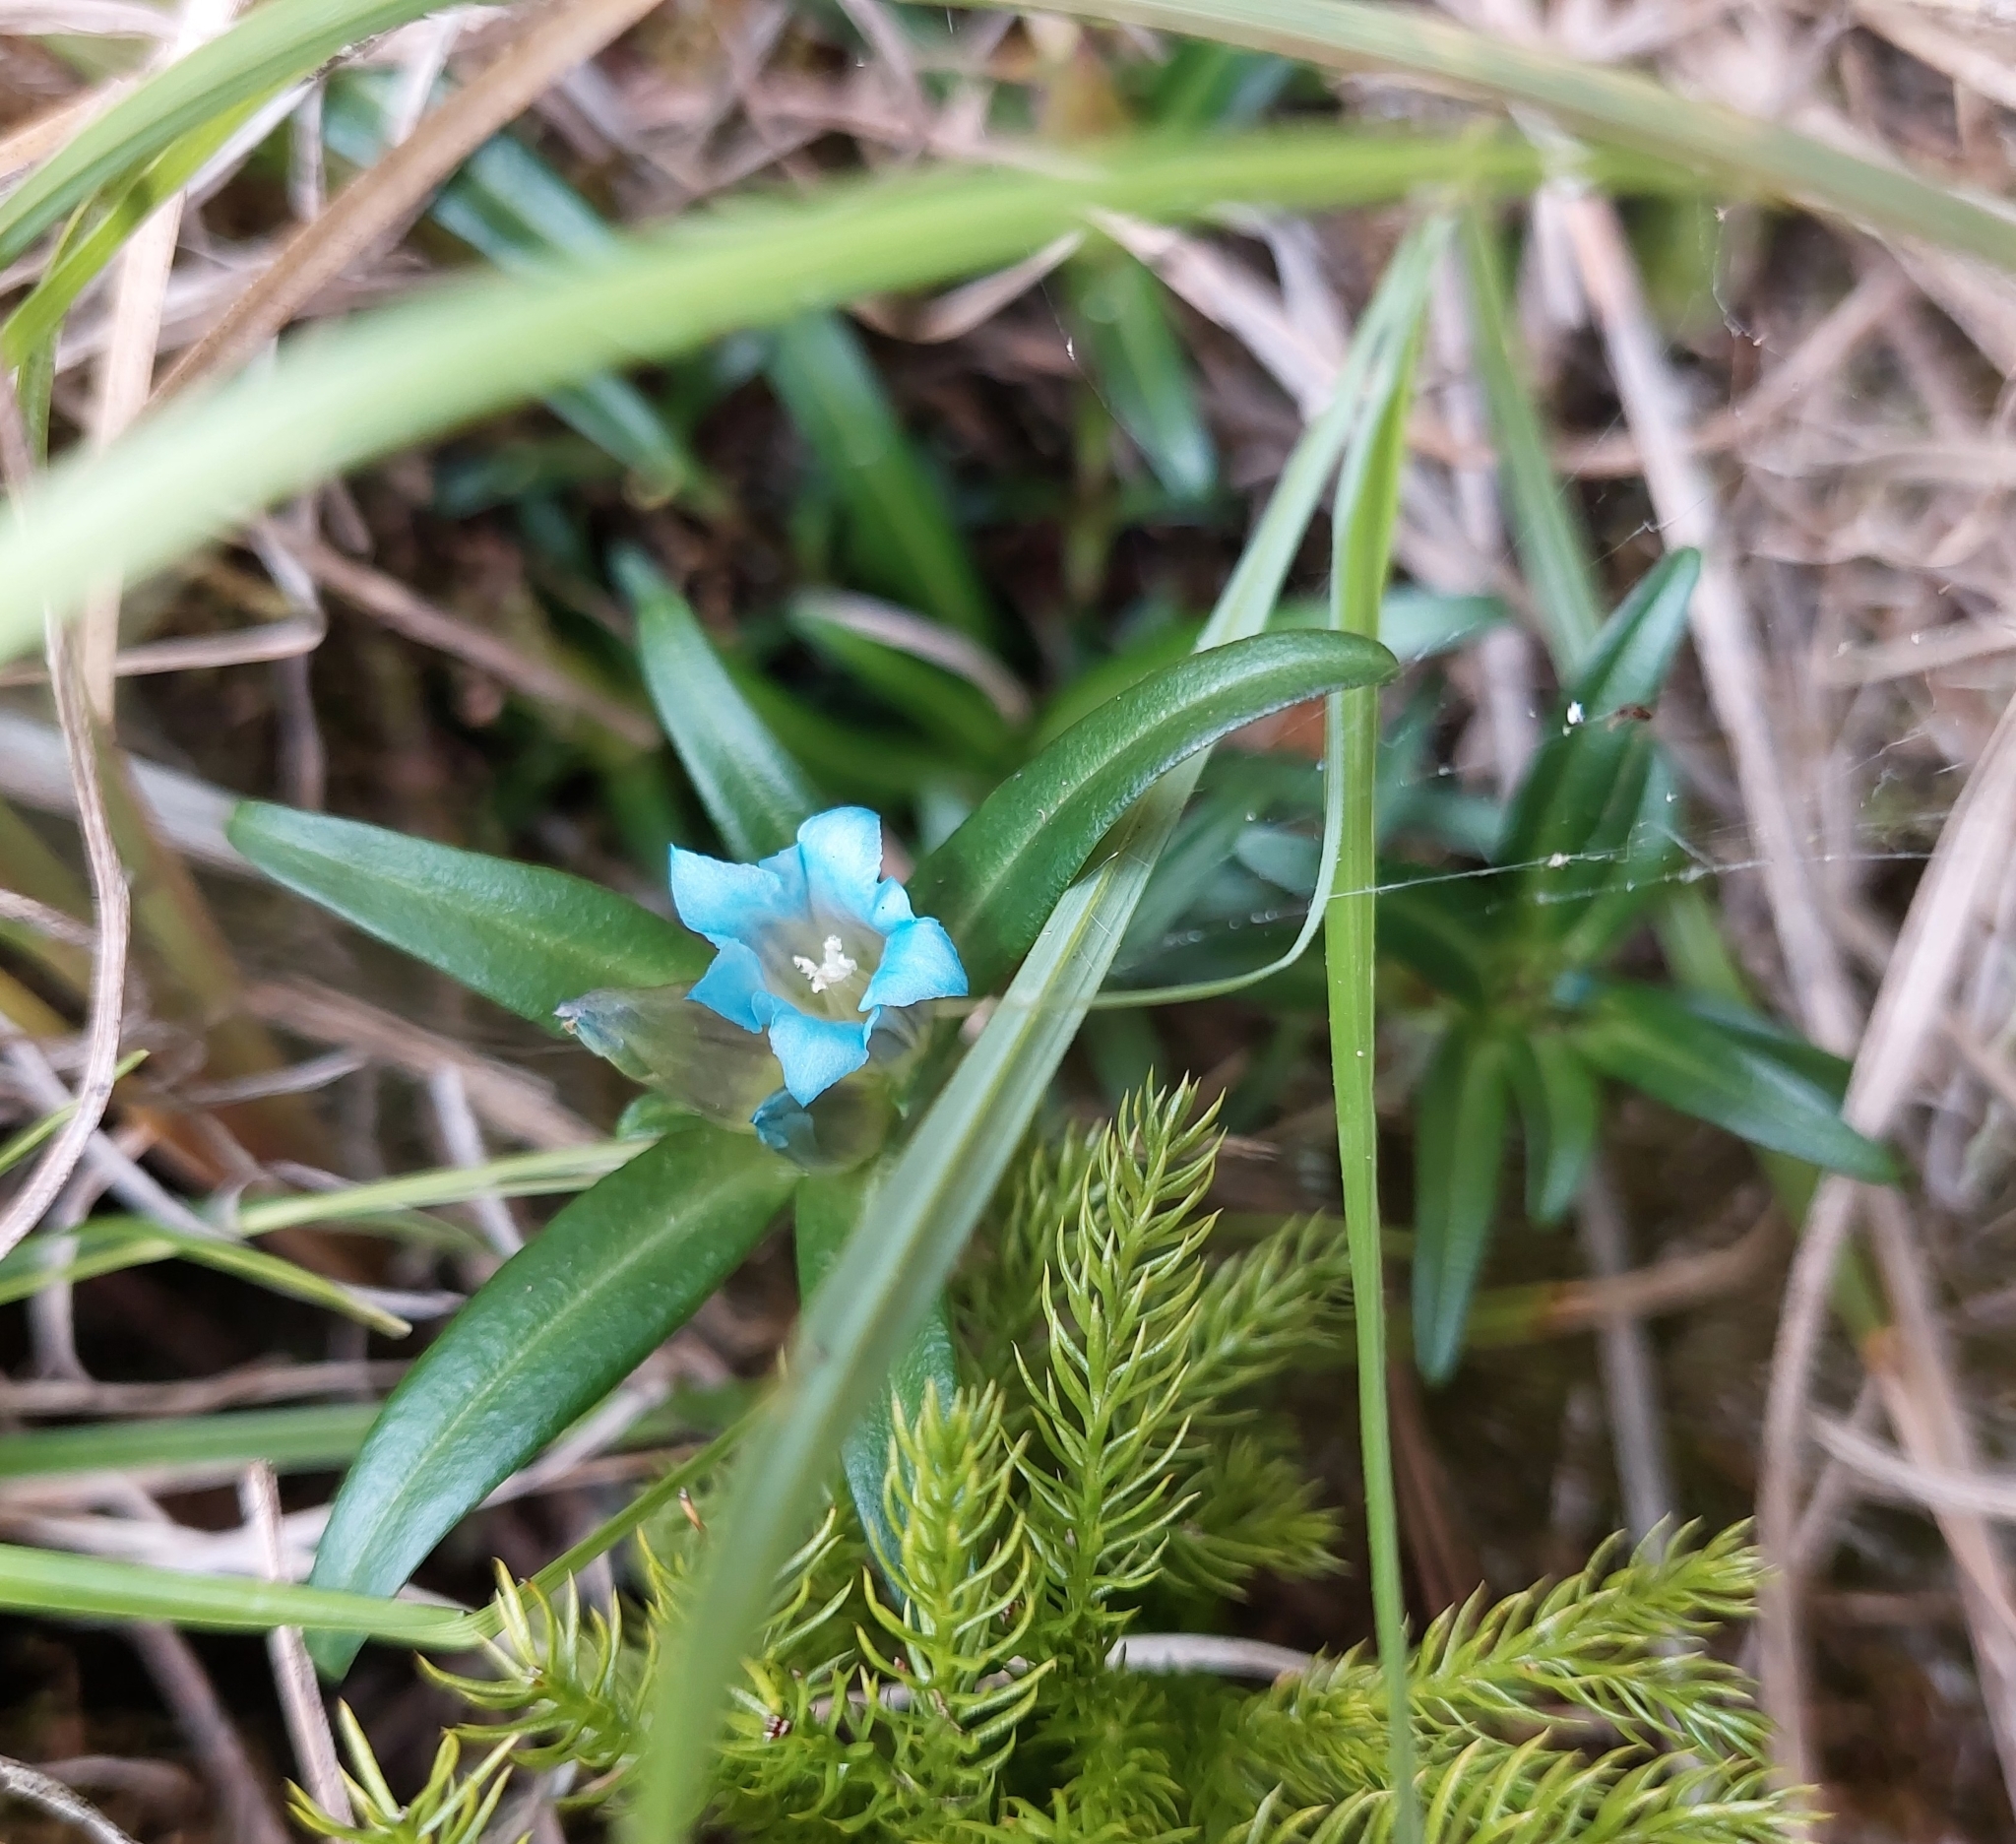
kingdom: Plantae
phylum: Tracheophyta
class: Magnoliopsida
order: Gentianales
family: Gentianaceae
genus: Gentiana
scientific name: Gentiana davidii
